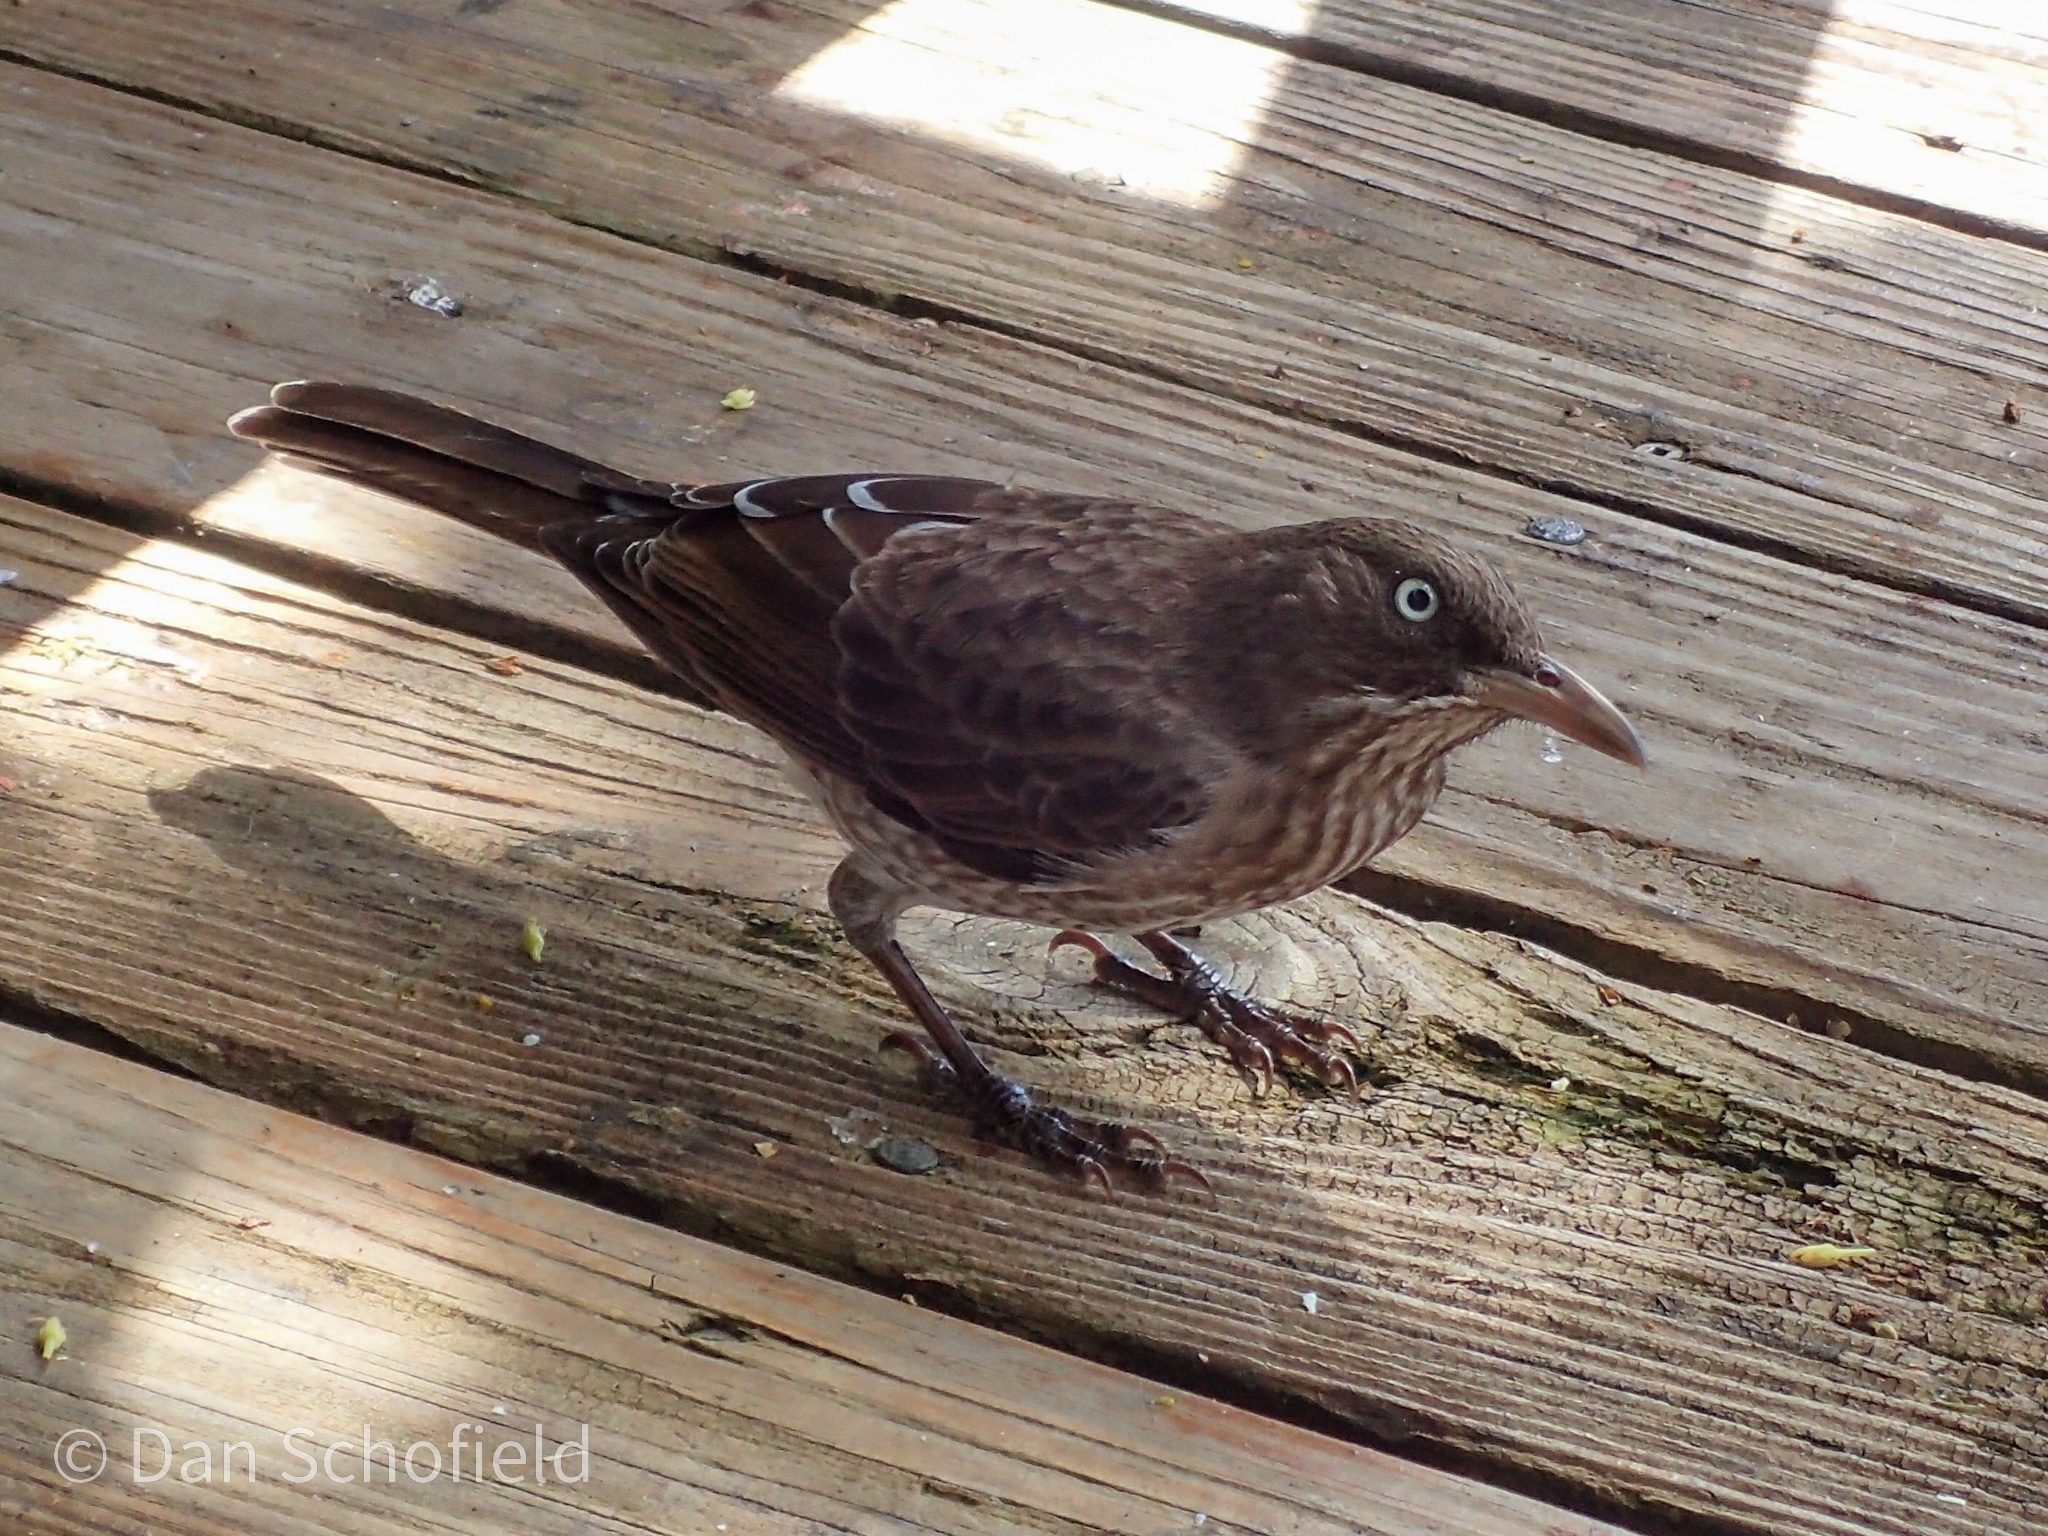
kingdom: Animalia
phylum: Chordata
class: Aves
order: Passeriformes
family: Mimidae
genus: Margarops
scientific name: Margarops fuscatus
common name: Pearly-eyed thrasher
